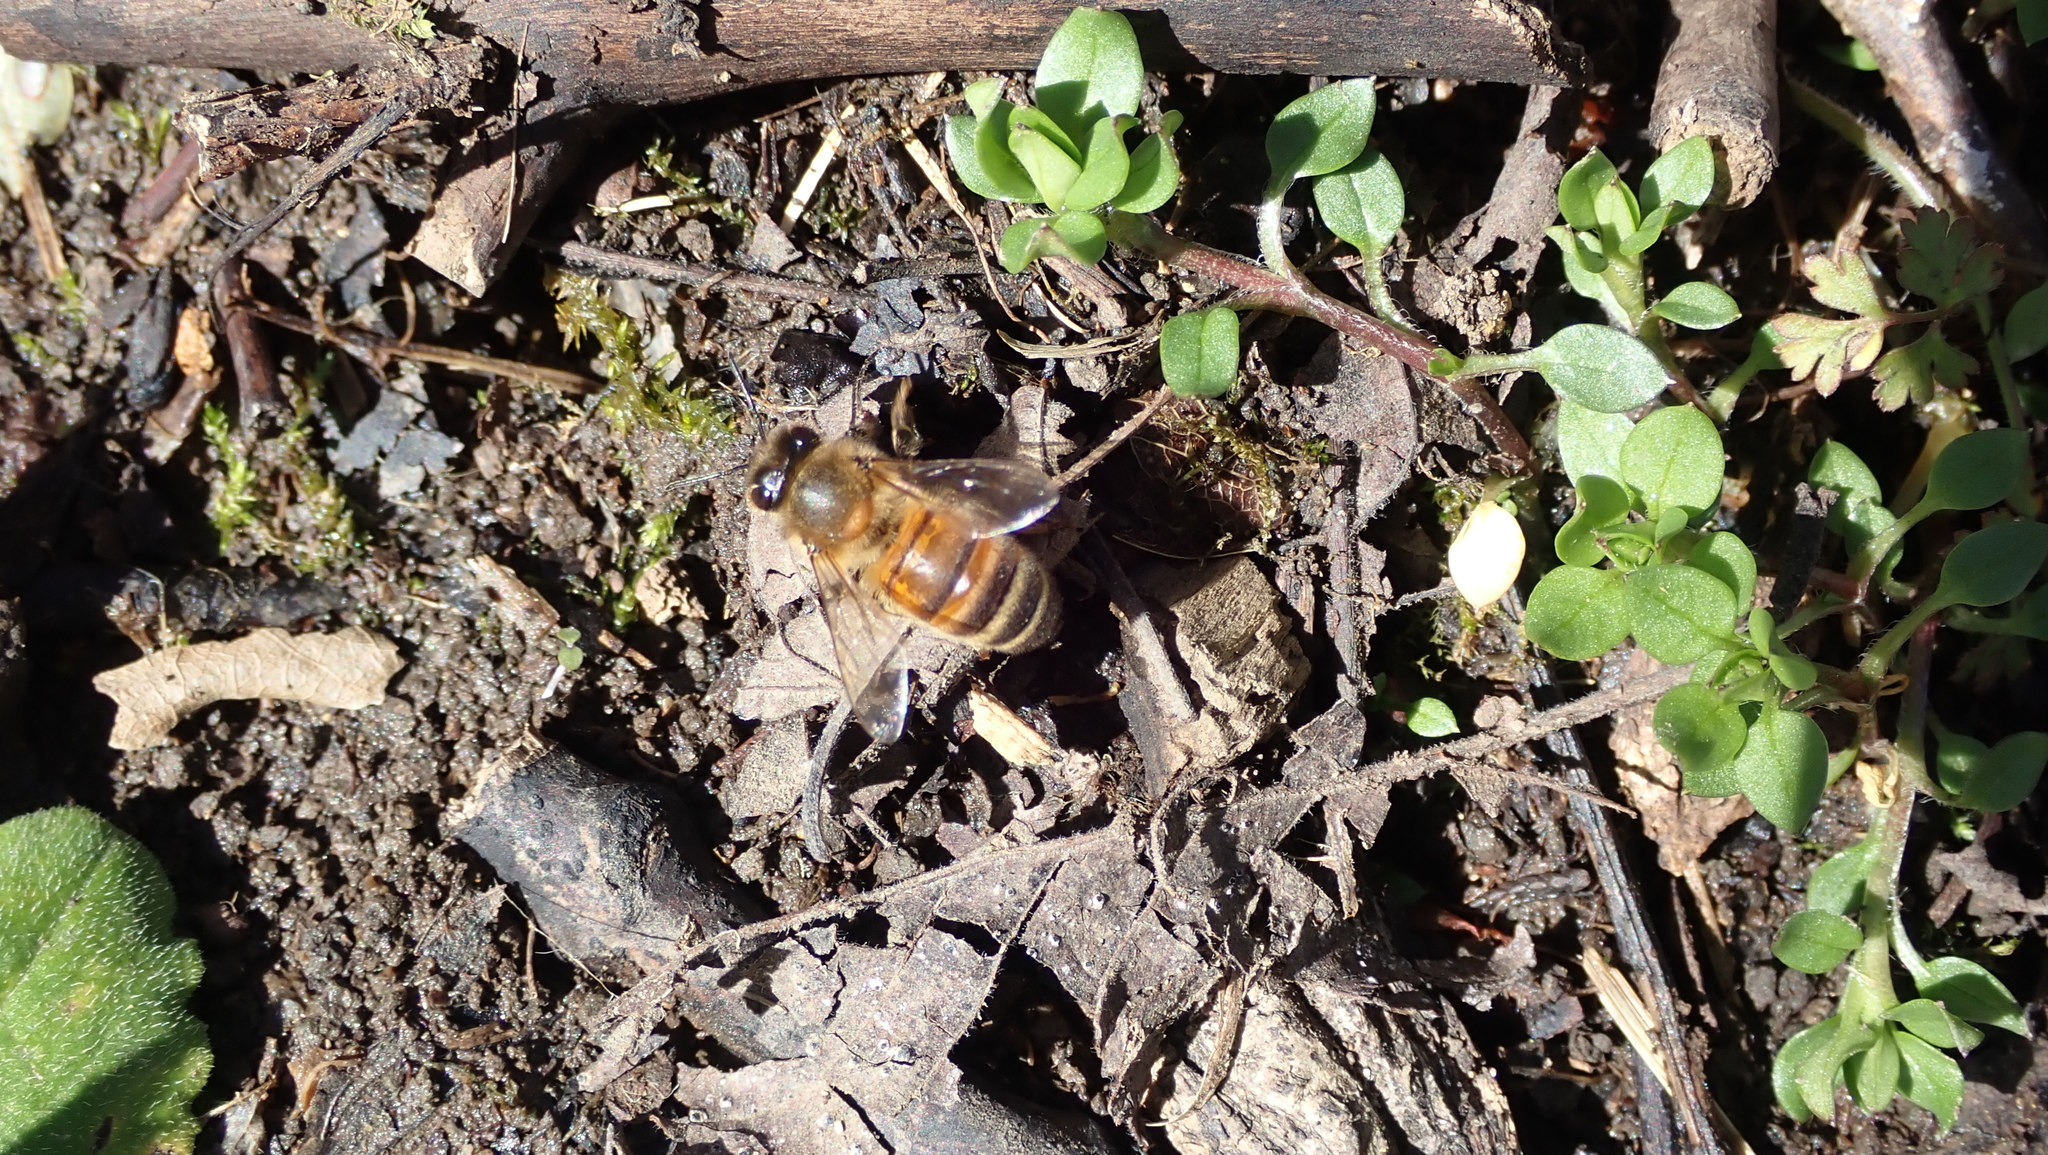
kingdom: Animalia
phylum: Arthropoda
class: Insecta
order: Hymenoptera
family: Apidae
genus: Apis
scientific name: Apis mellifera
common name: Honey bee
